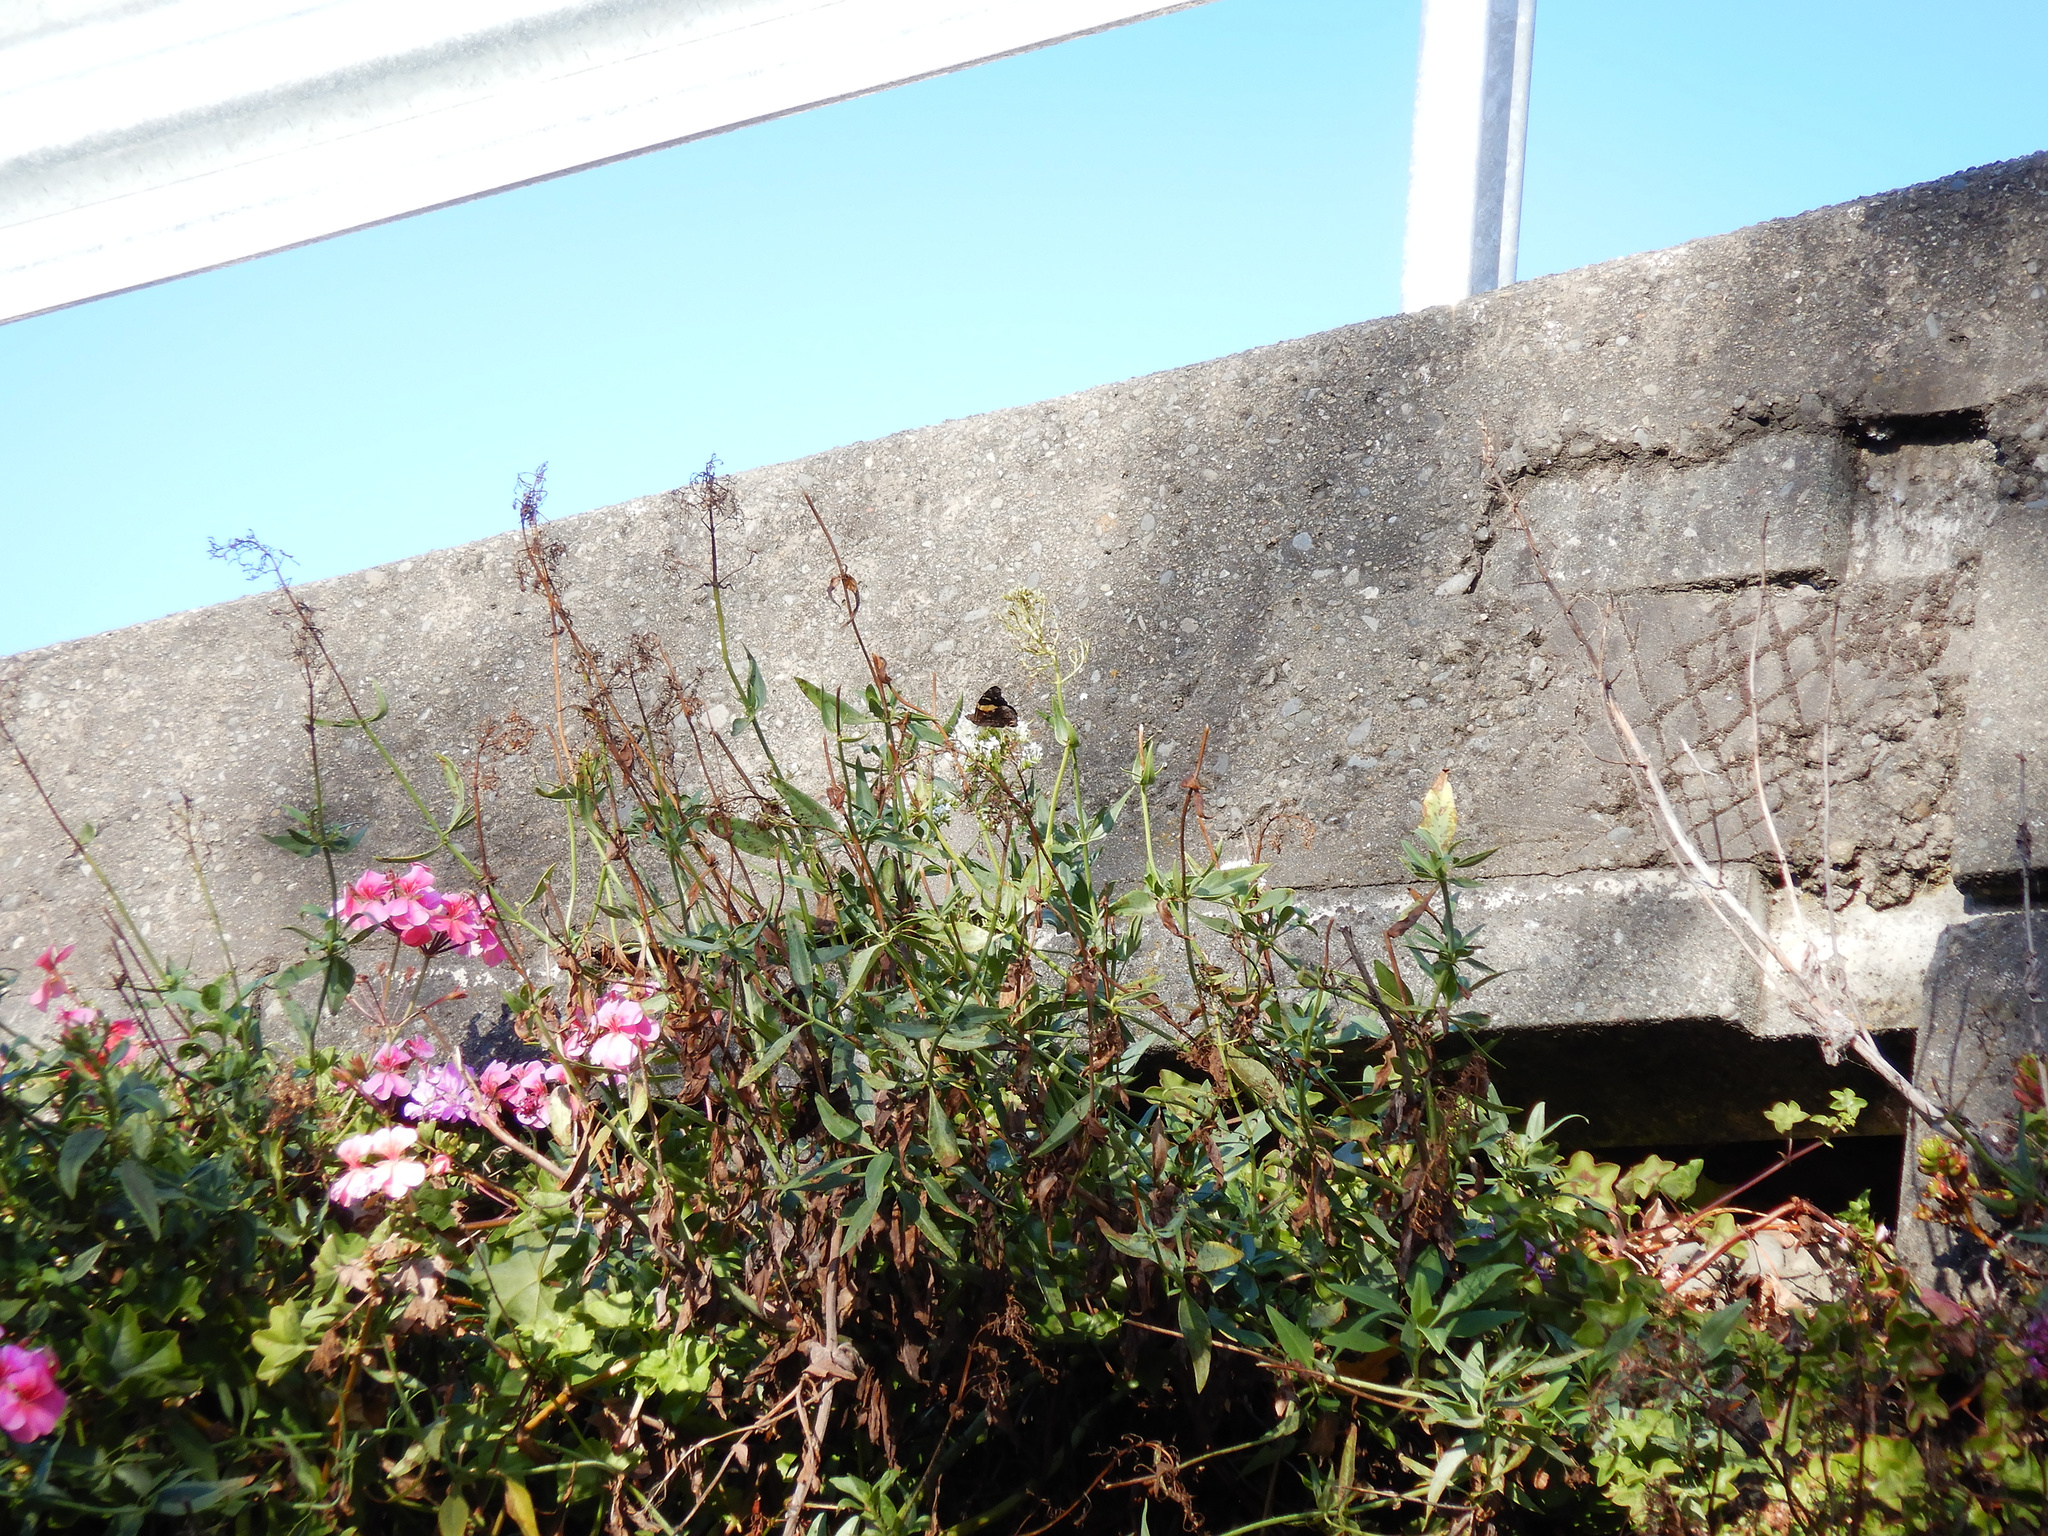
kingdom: Animalia
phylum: Arthropoda
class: Insecta
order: Lepidoptera
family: Nymphalidae
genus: Vanessa
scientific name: Vanessa itea
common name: Yellow admiral
